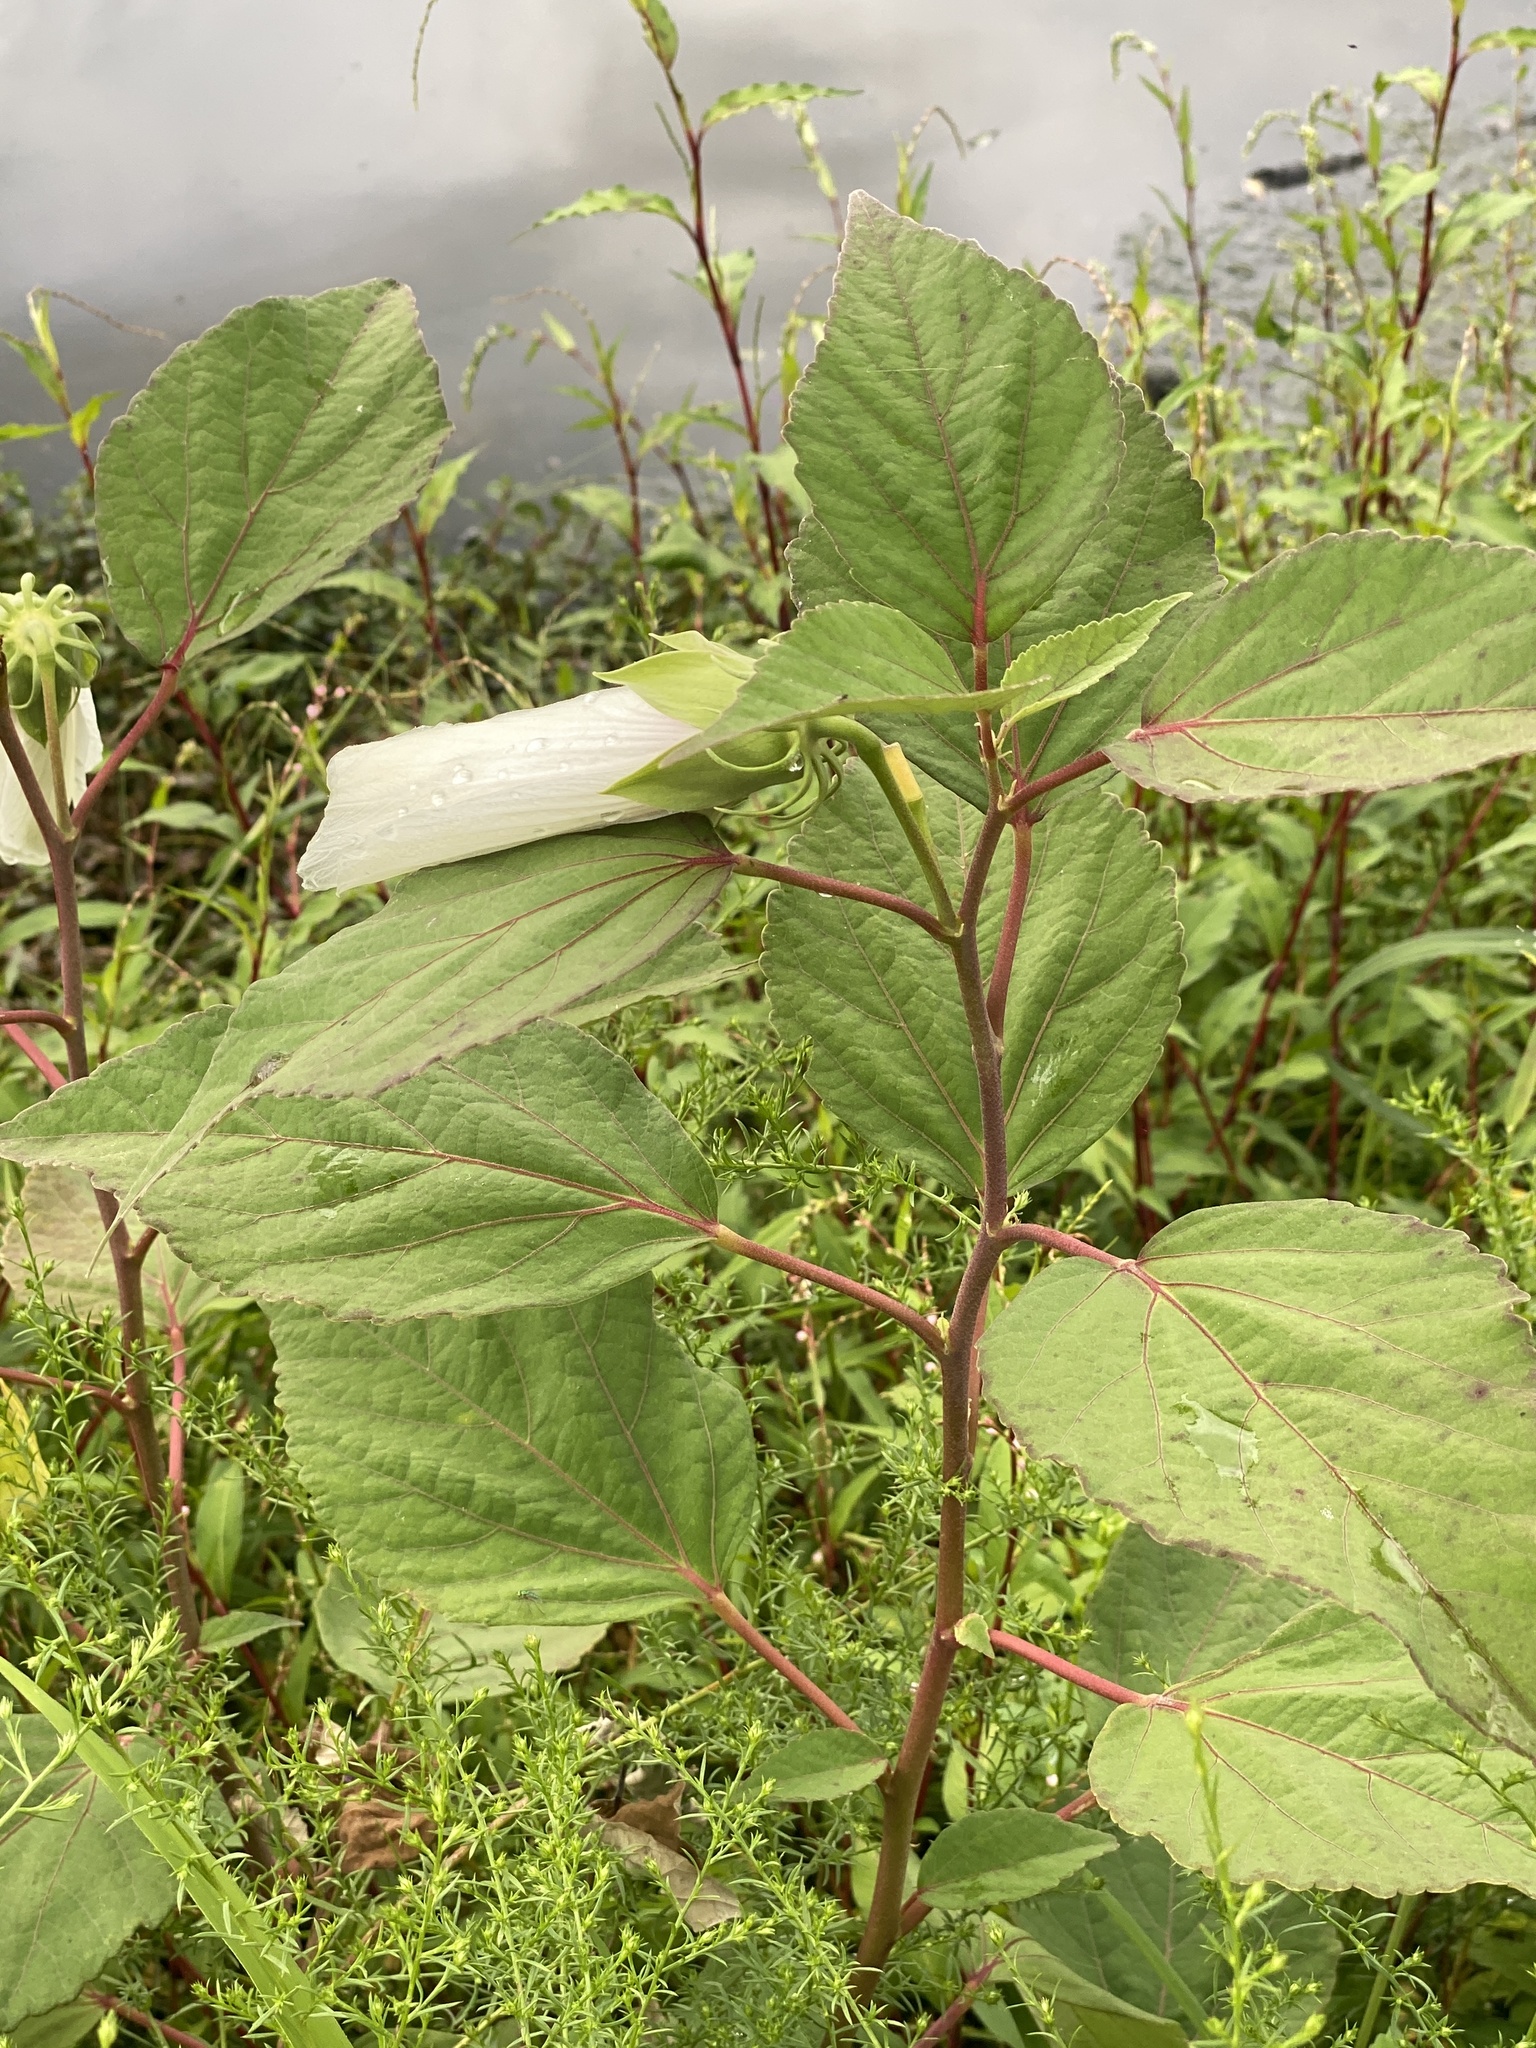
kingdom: Plantae
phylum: Tracheophyta
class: Magnoliopsida
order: Malvales
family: Malvaceae
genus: Hibiscus
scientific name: Hibiscus moscheutos
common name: Common rose-mallow
